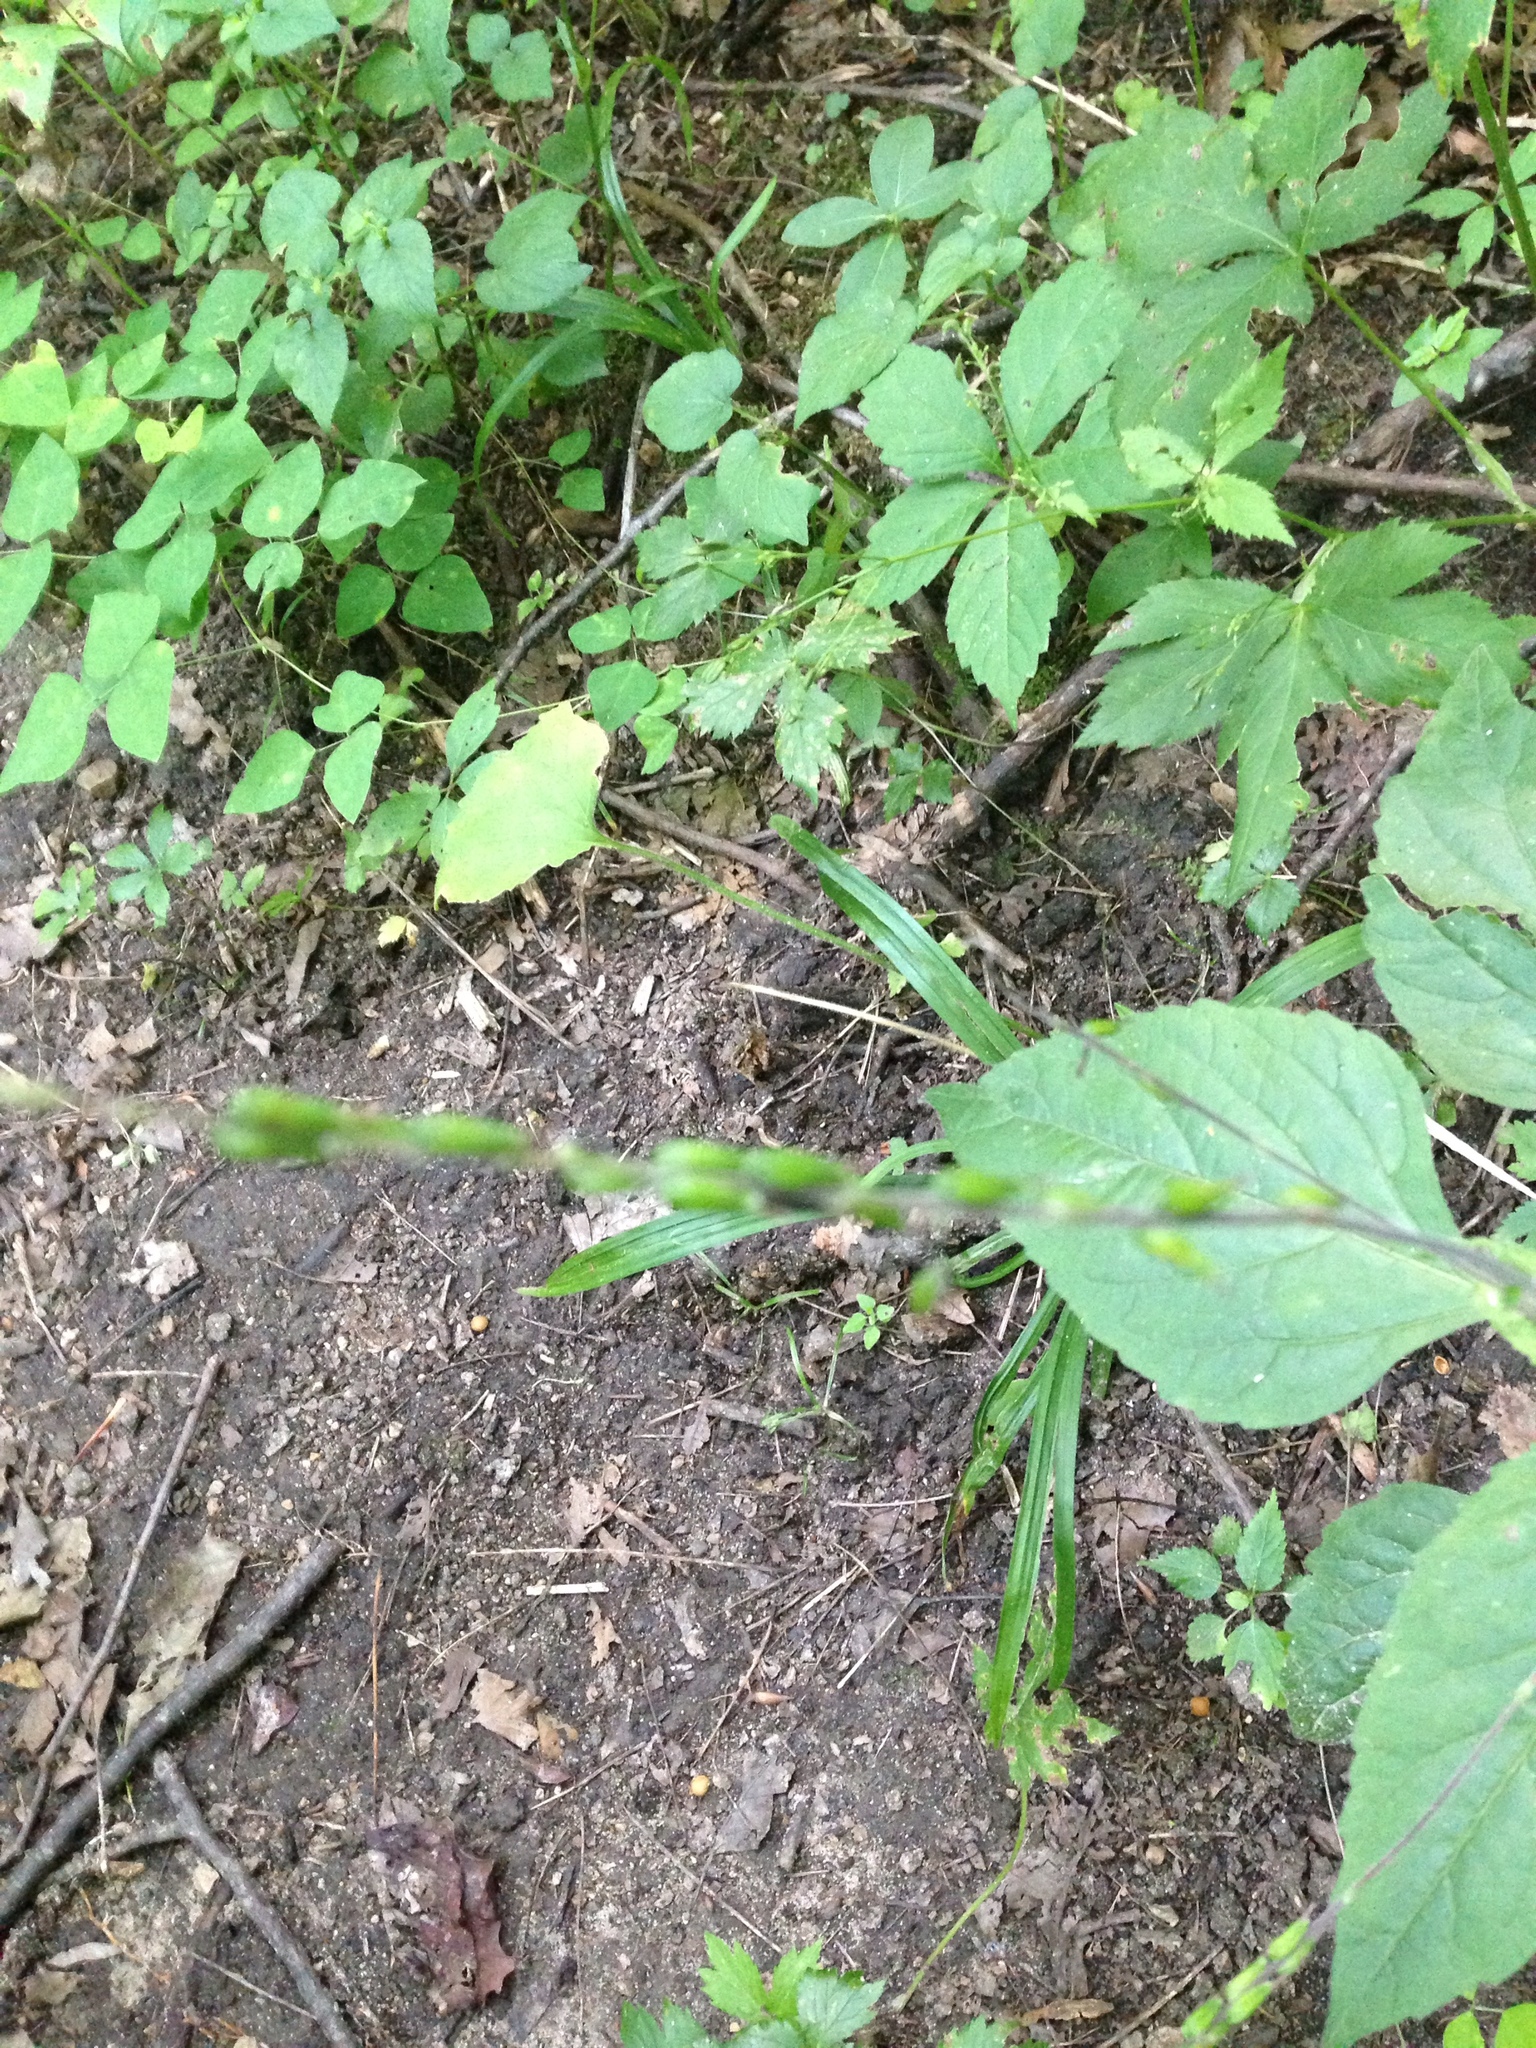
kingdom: Plantae
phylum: Tracheophyta
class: Magnoliopsida
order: Lamiales
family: Phrymaceae
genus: Phryma
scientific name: Phryma leptostachya
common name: American lopseed
